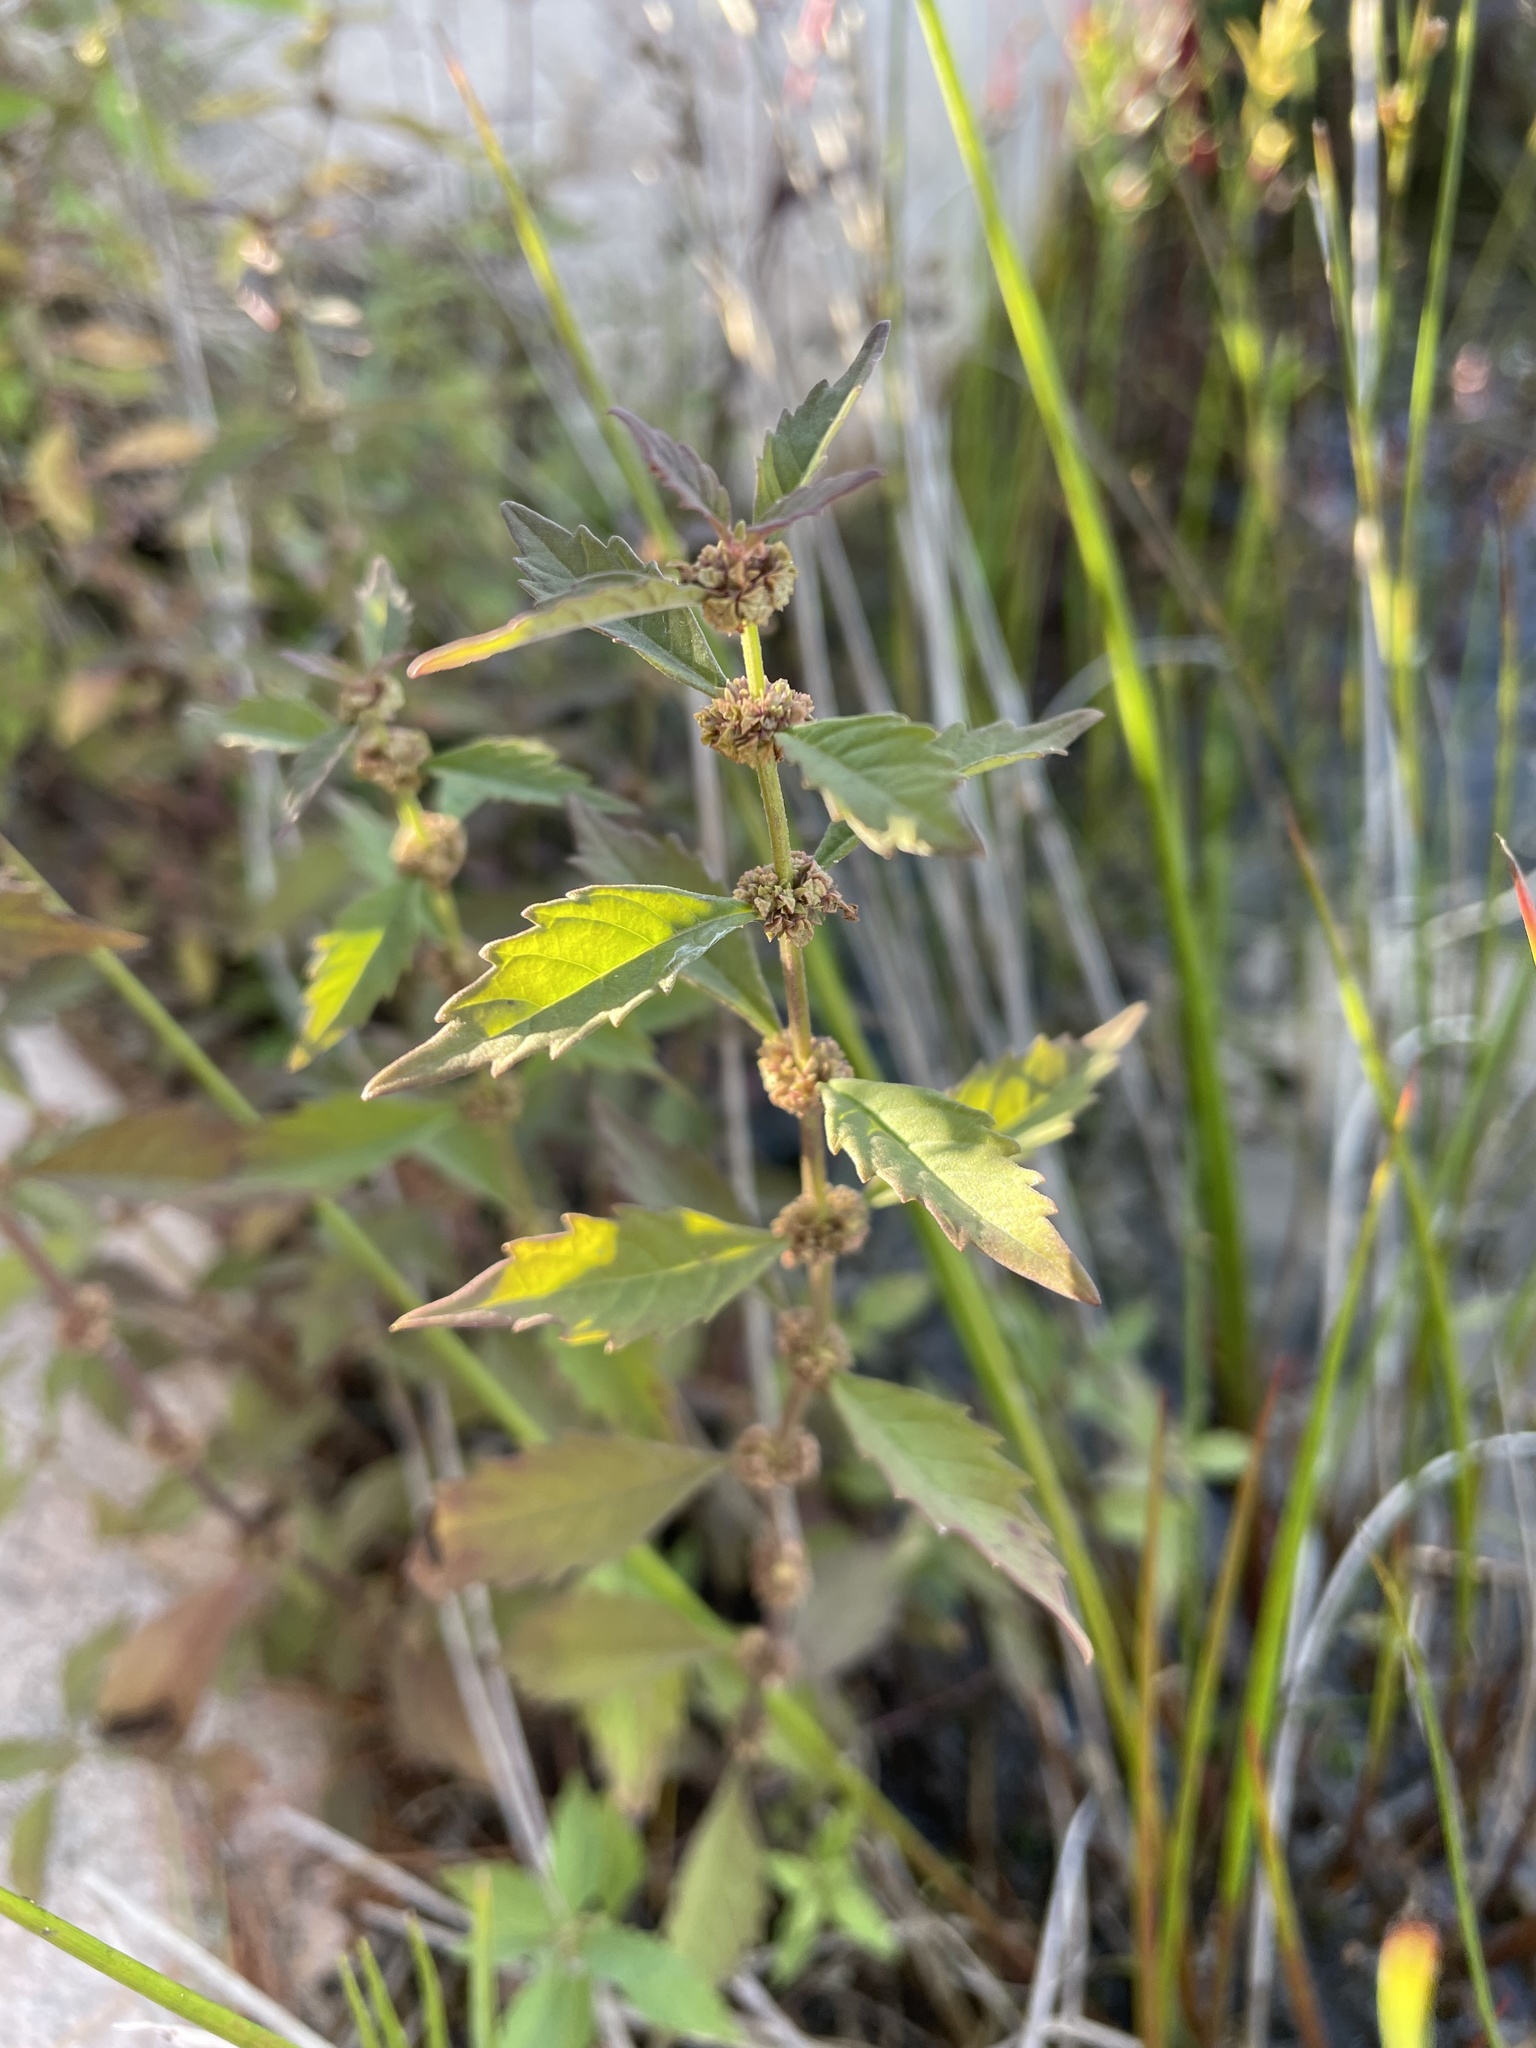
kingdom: Plantae
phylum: Tracheophyta
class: Magnoliopsida
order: Lamiales
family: Lamiaceae
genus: Lycopus
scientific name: Lycopus uniflorus
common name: Northern bugleweed
